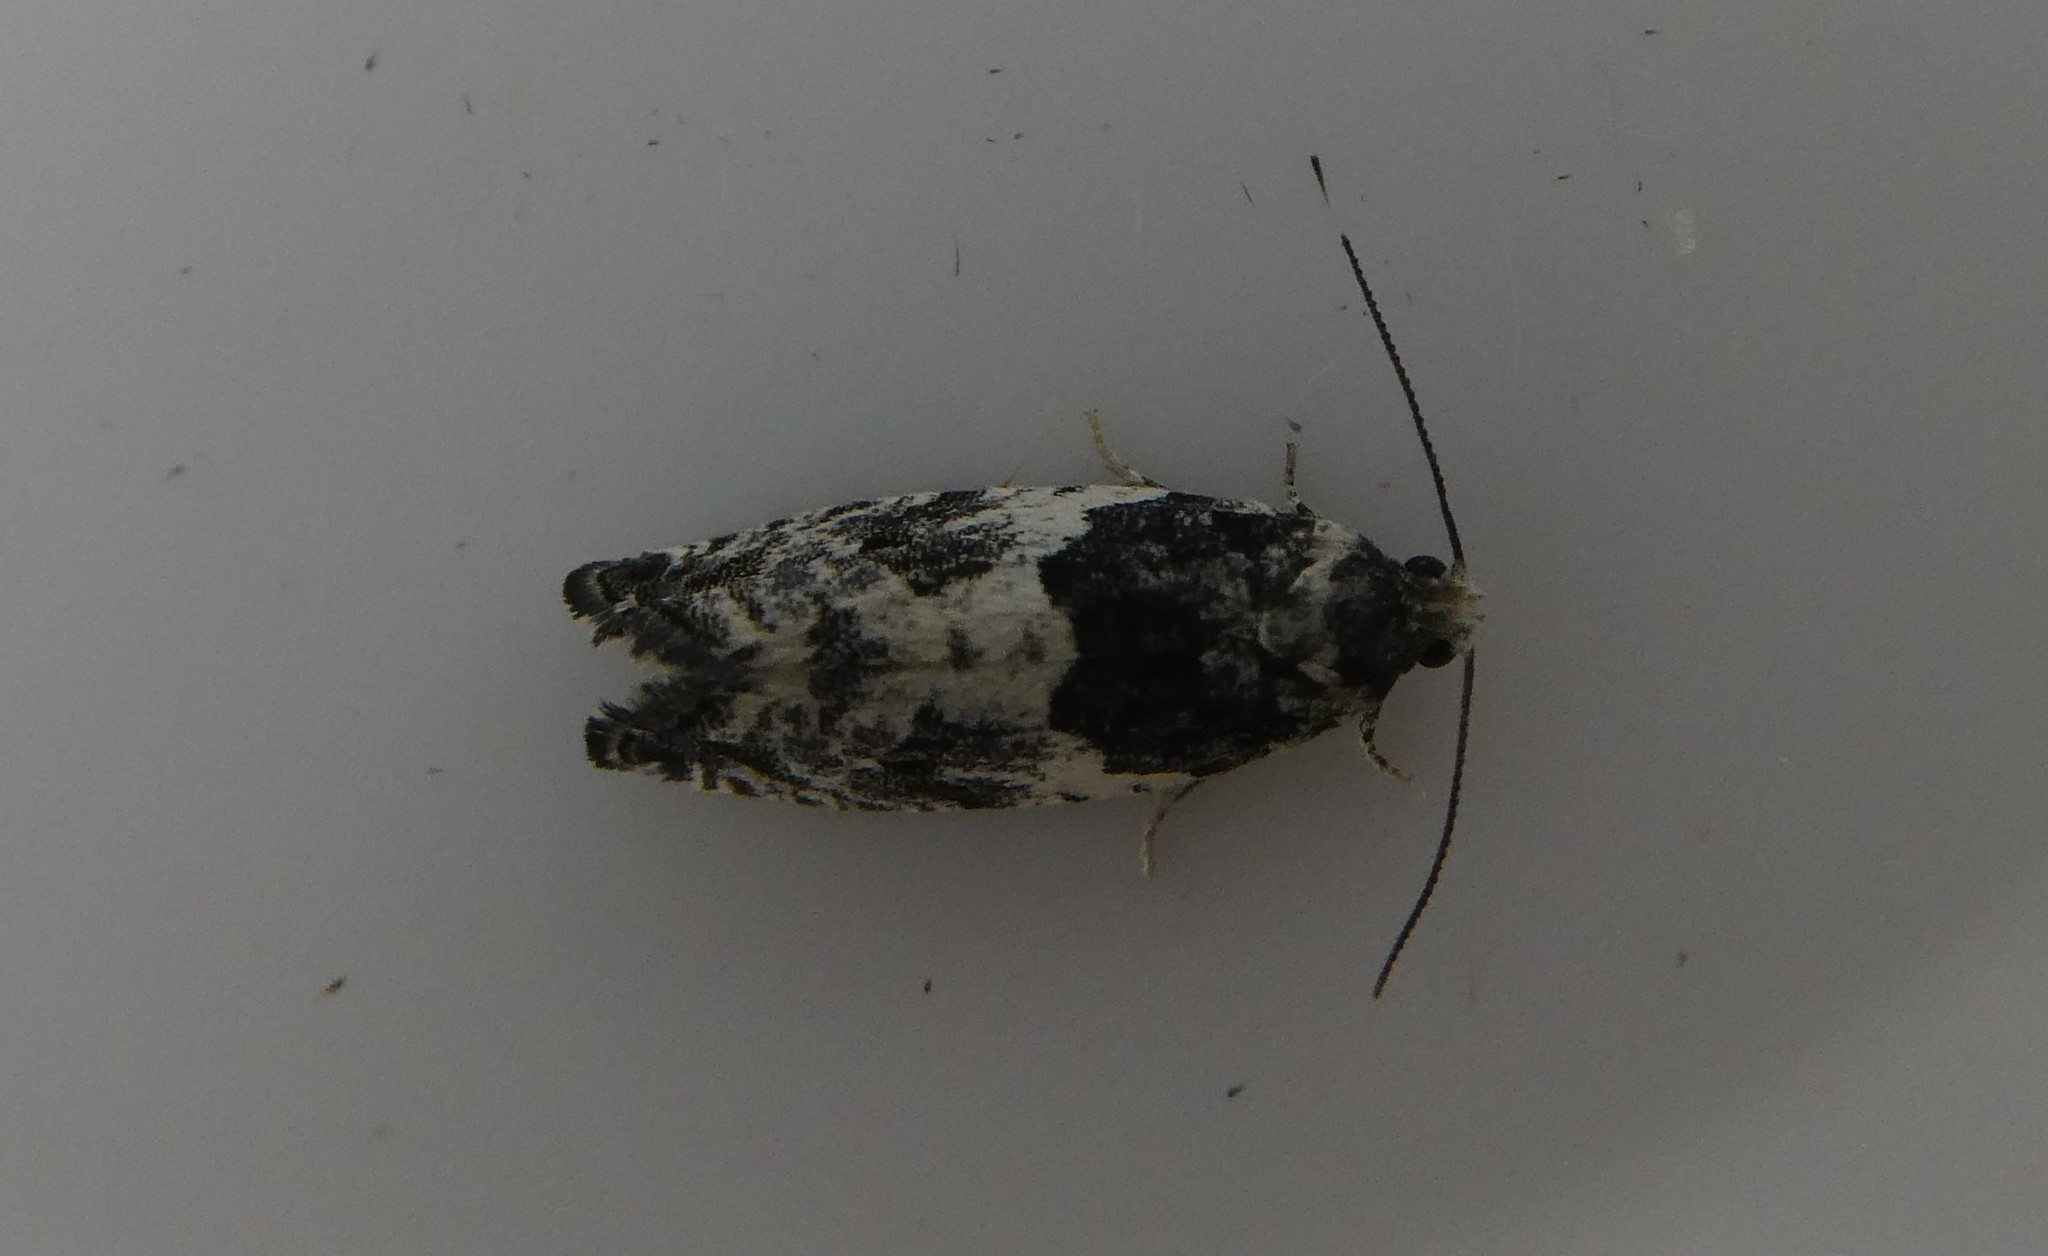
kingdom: Animalia
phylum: Arthropoda
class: Insecta
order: Lepidoptera
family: Tortricidae
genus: Gypsonoma
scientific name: Gypsonoma adjuncta
